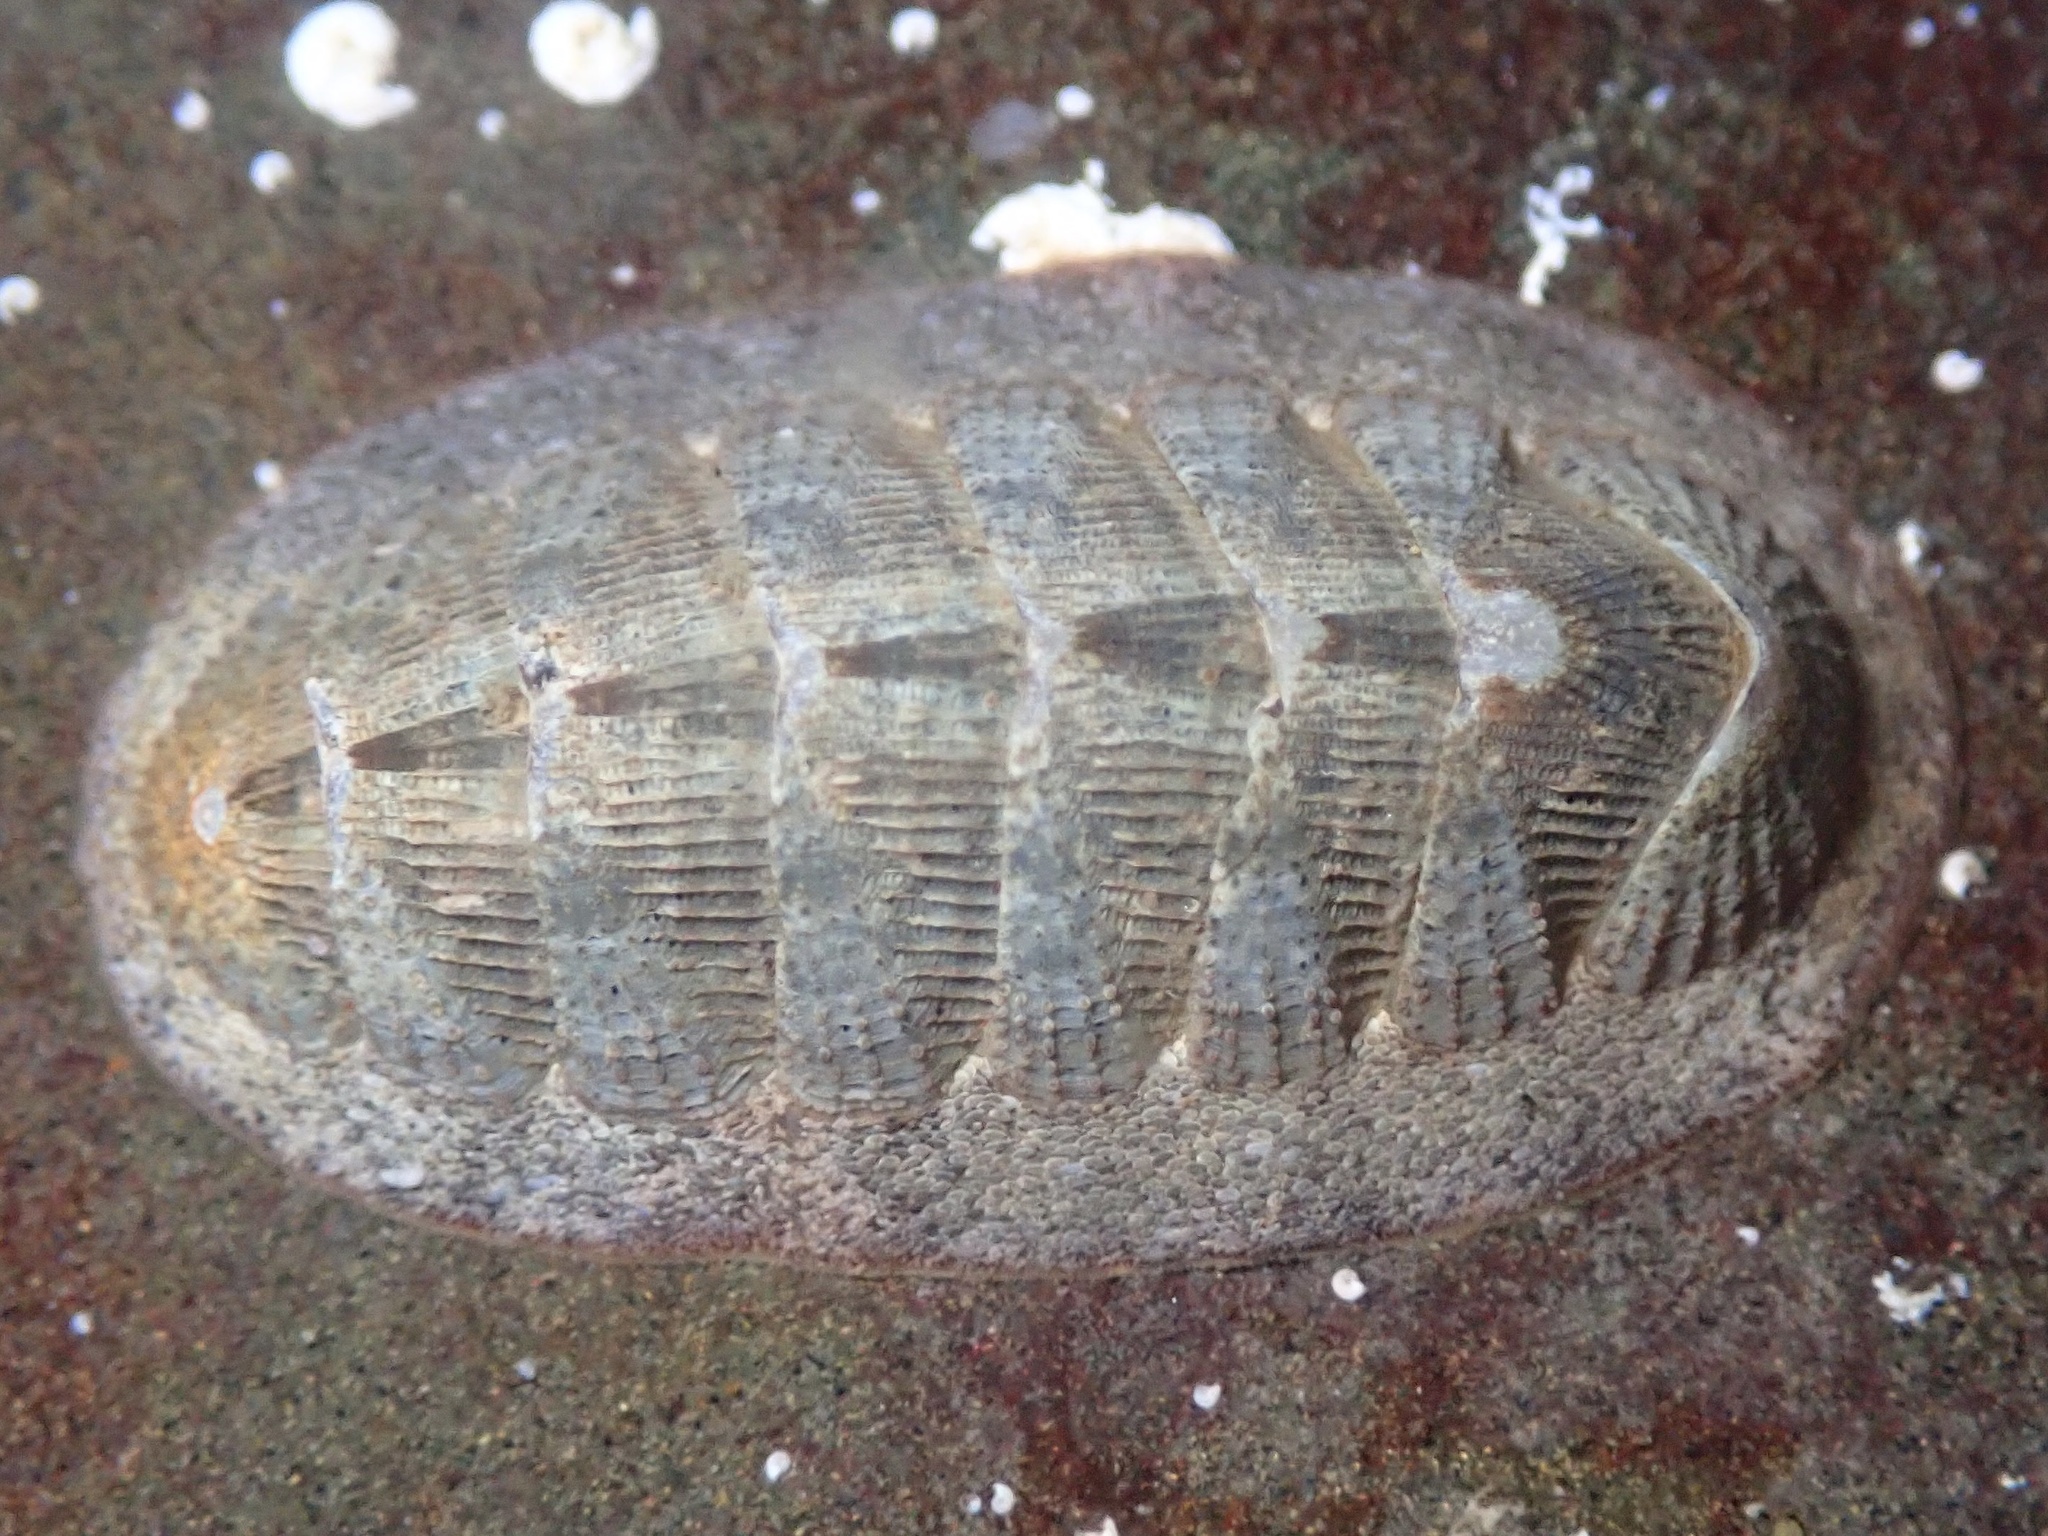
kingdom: Animalia
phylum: Mollusca
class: Polyplacophora
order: Chitonida
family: Ischnochitonidae
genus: Lepidozona
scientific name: Lepidozona cooperi
